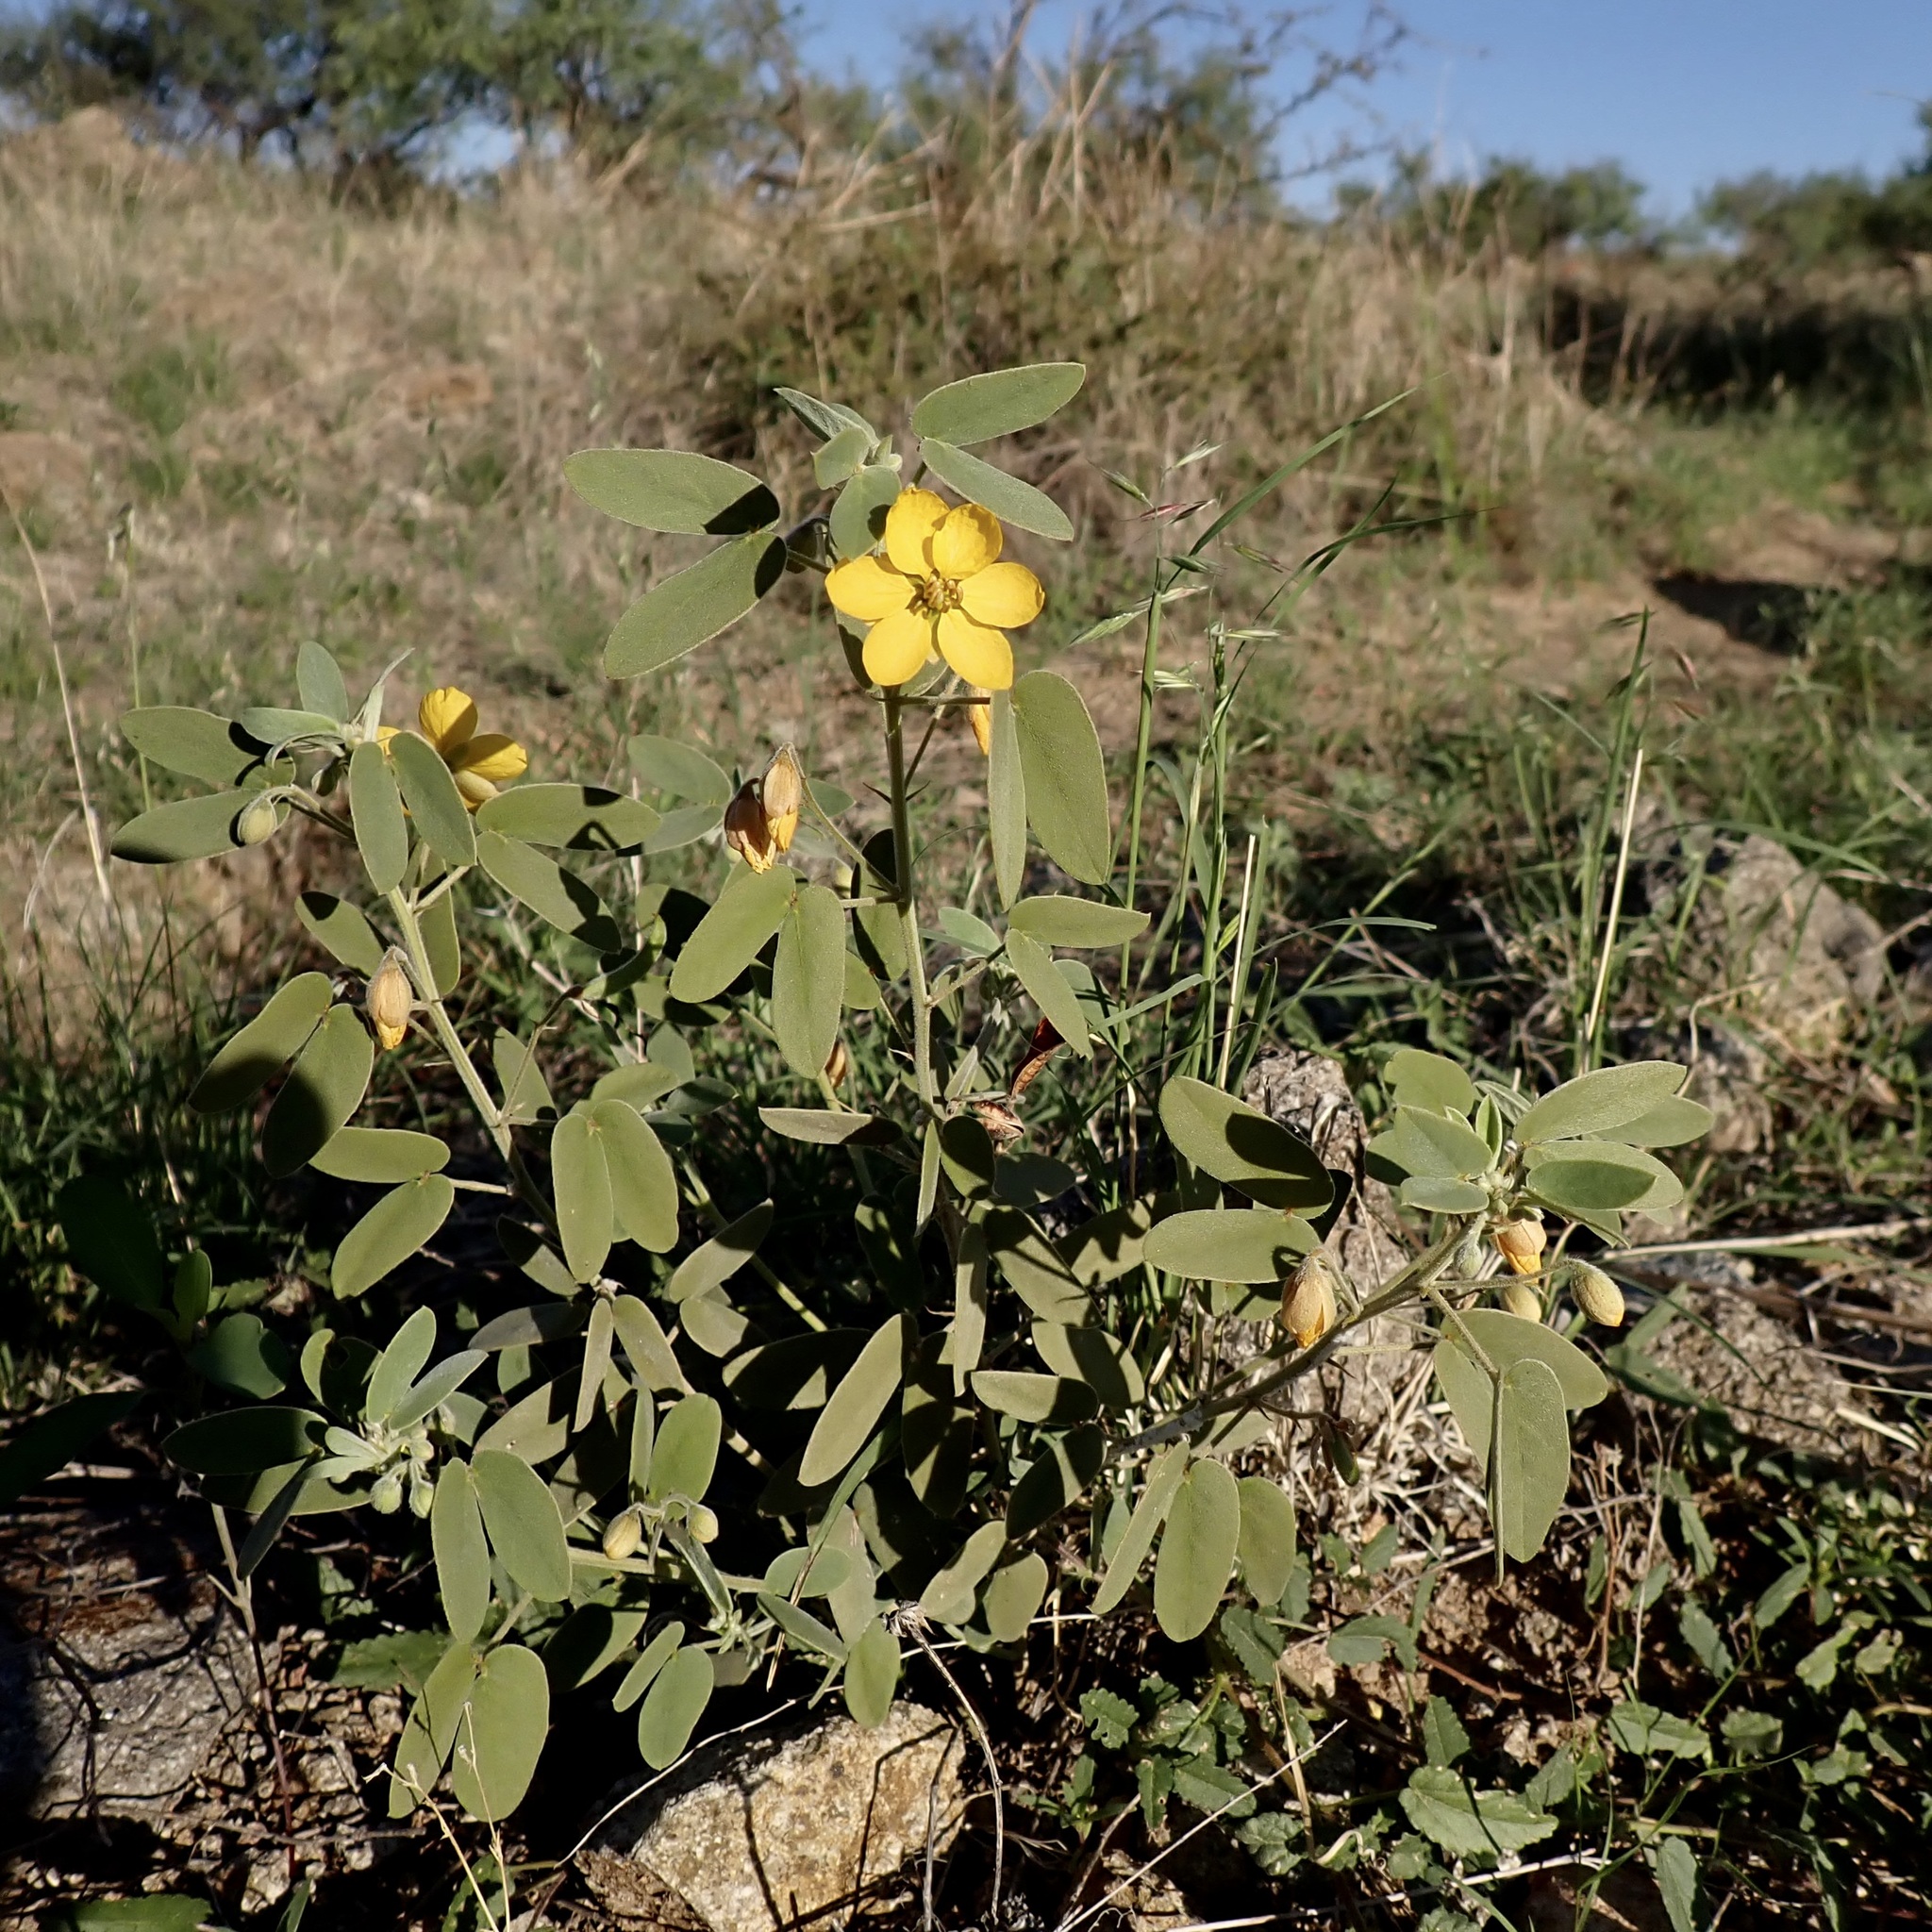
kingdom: Plantae
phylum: Tracheophyta
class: Magnoliopsida
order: Fabales
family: Fabaceae
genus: Senna
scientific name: Senna bauhinioides
